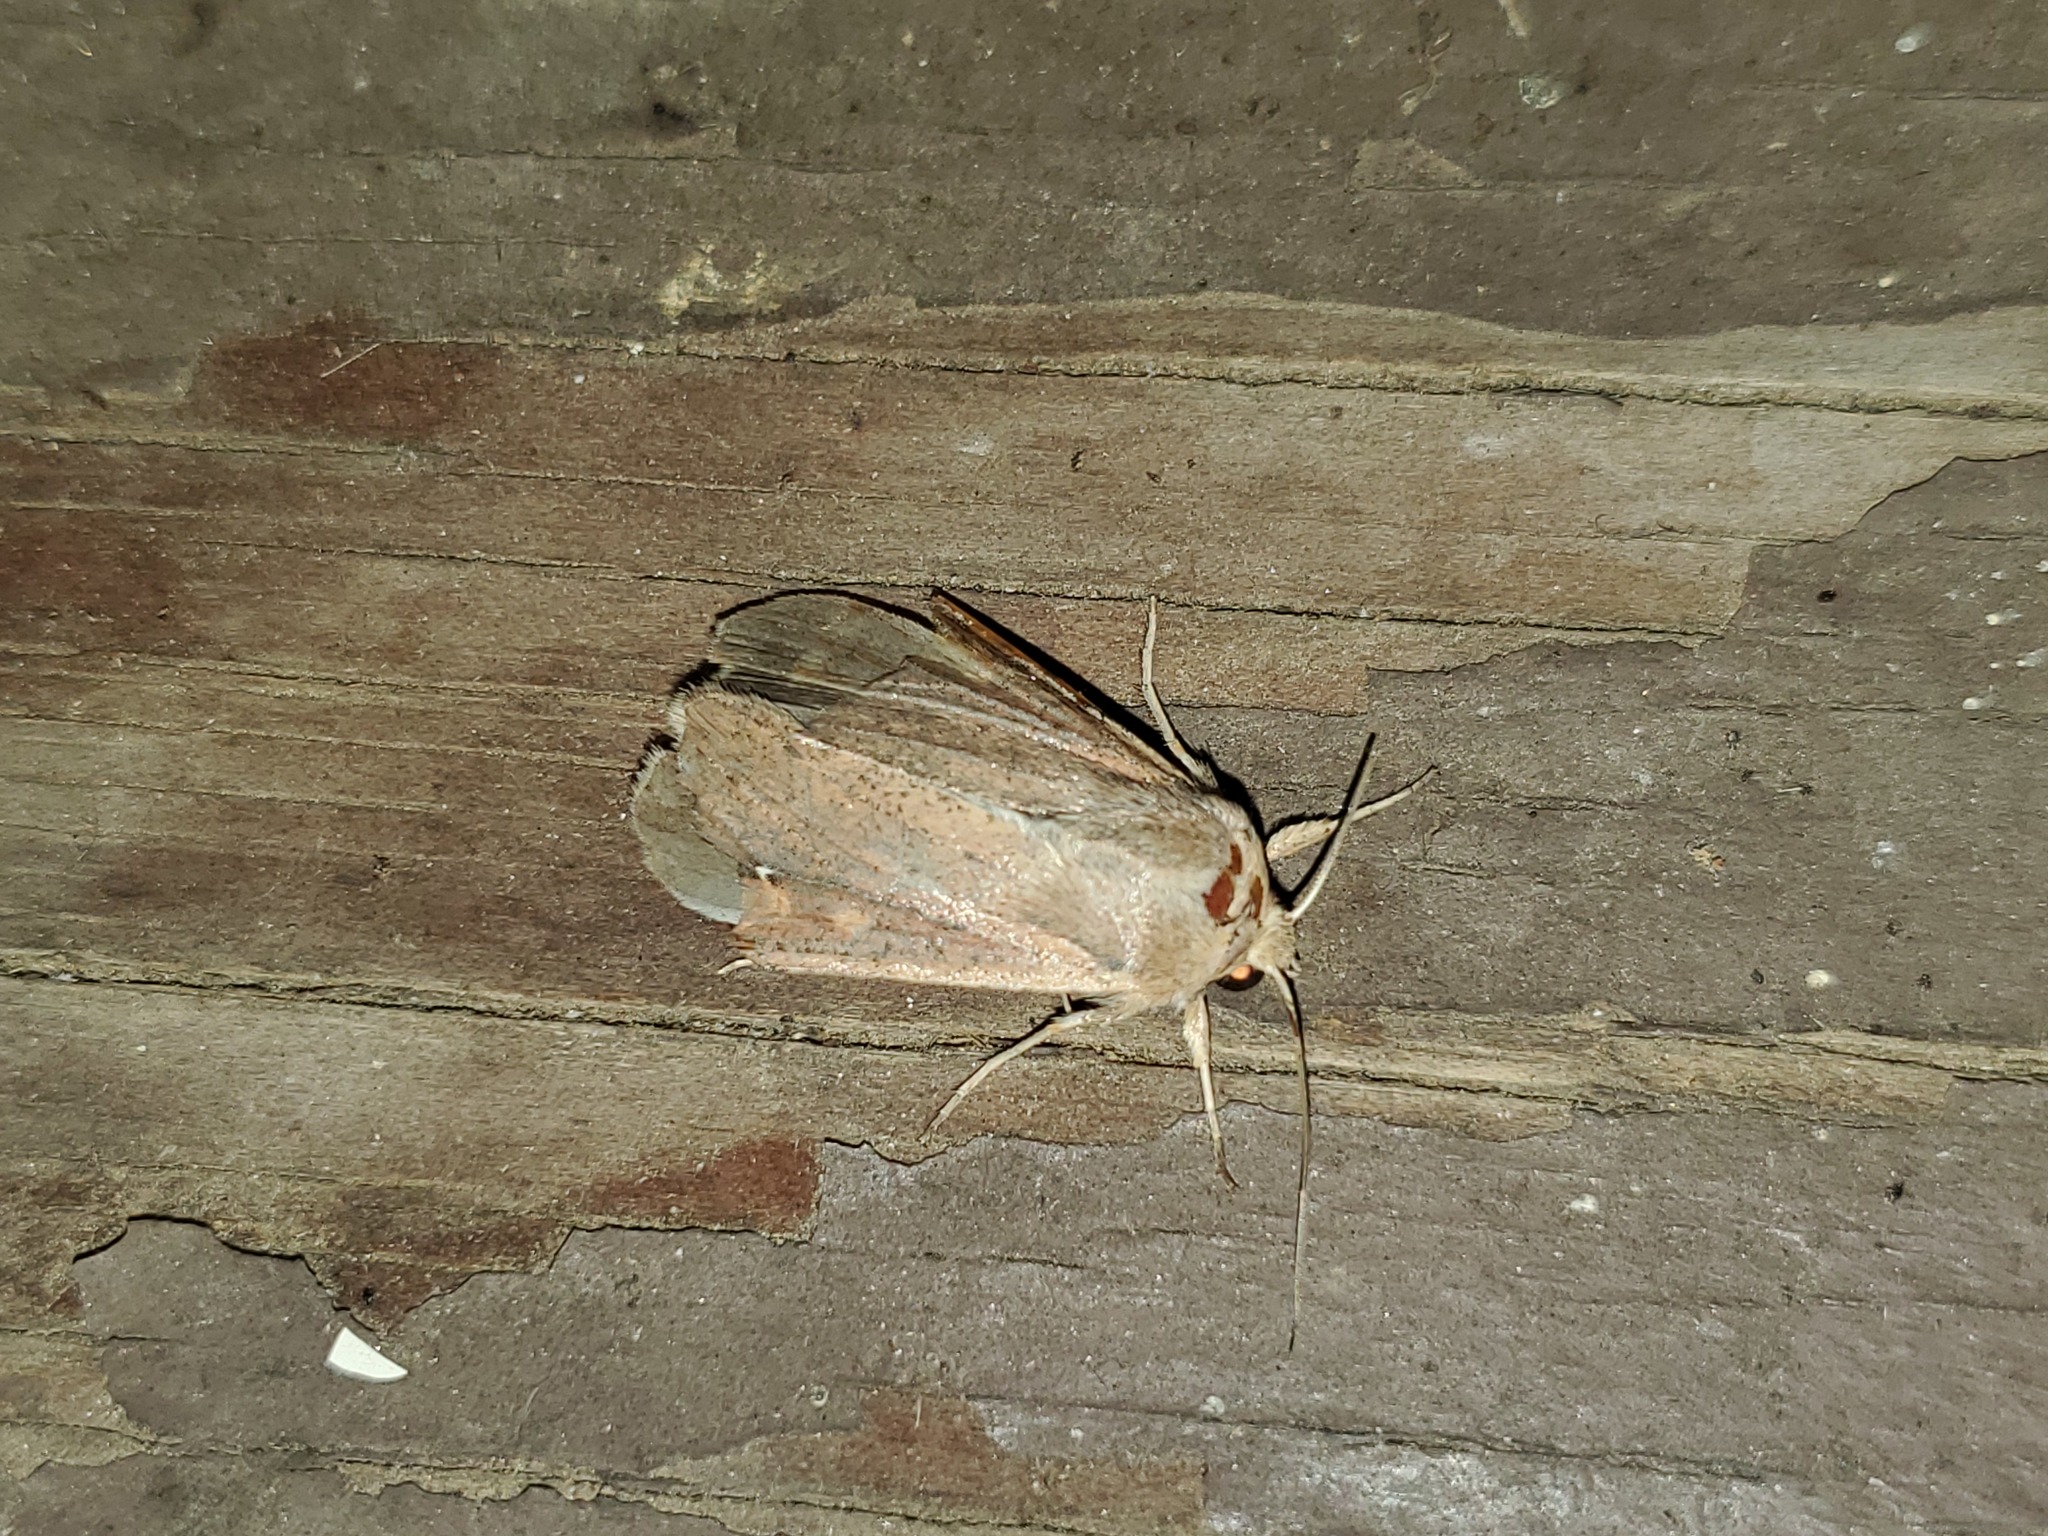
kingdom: Animalia
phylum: Arthropoda
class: Insecta
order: Lepidoptera
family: Noctuidae
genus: Mythimna
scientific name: Mythimna unipuncta
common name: White-speck
